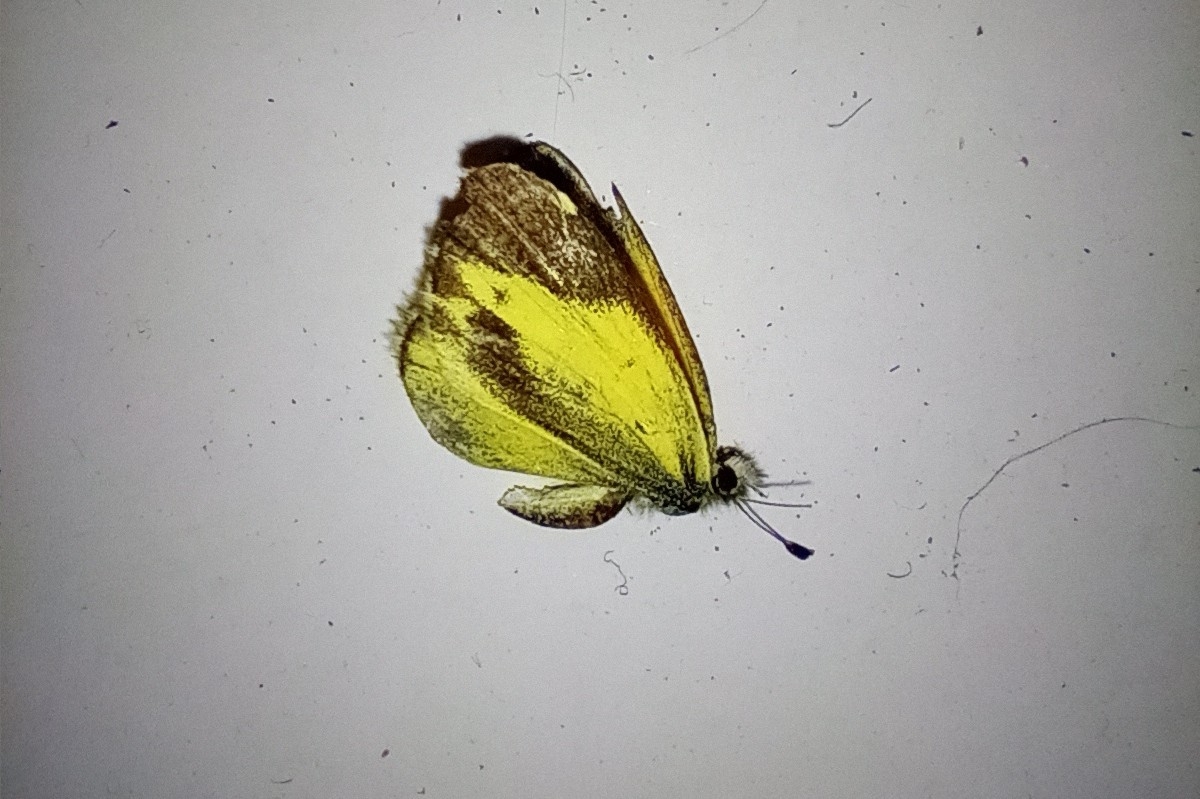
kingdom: Animalia
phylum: Arthropoda
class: Insecta
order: Lepidoptera
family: Pieridae
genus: Nathalis
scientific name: Nathalis iole
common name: Dainty sulphur
